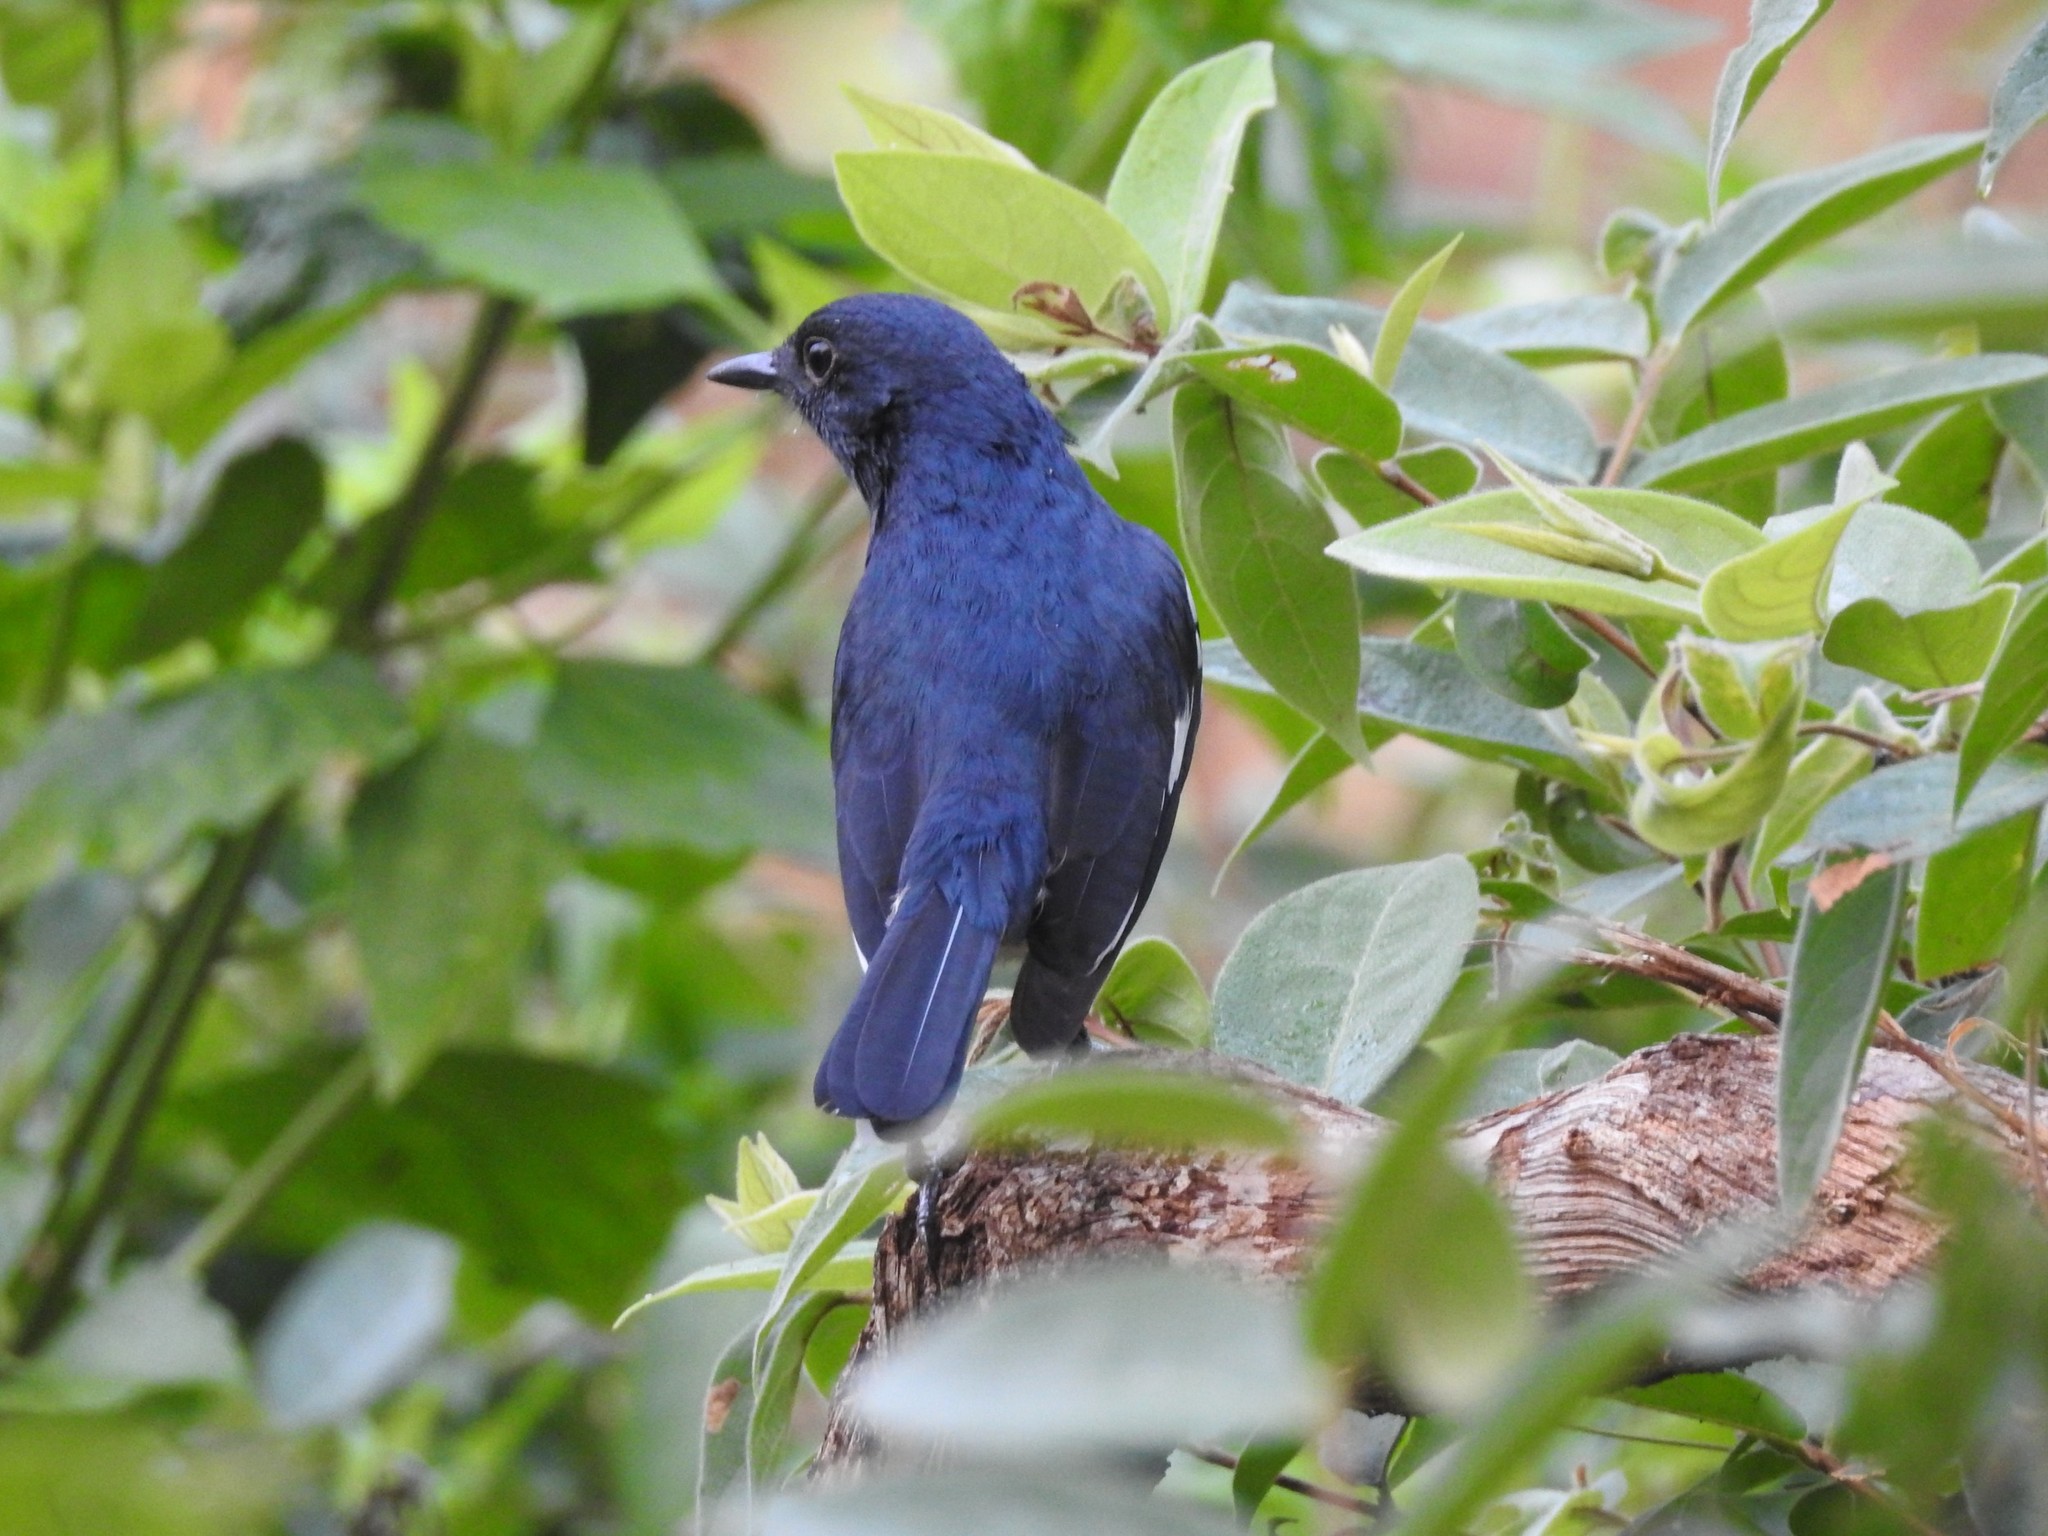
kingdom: Animalia
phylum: Chordata
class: Aves
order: Passeriformes
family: Muscicapidae
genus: Copsychus
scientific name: Copsychus saularis
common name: Oriental magpie-robin
